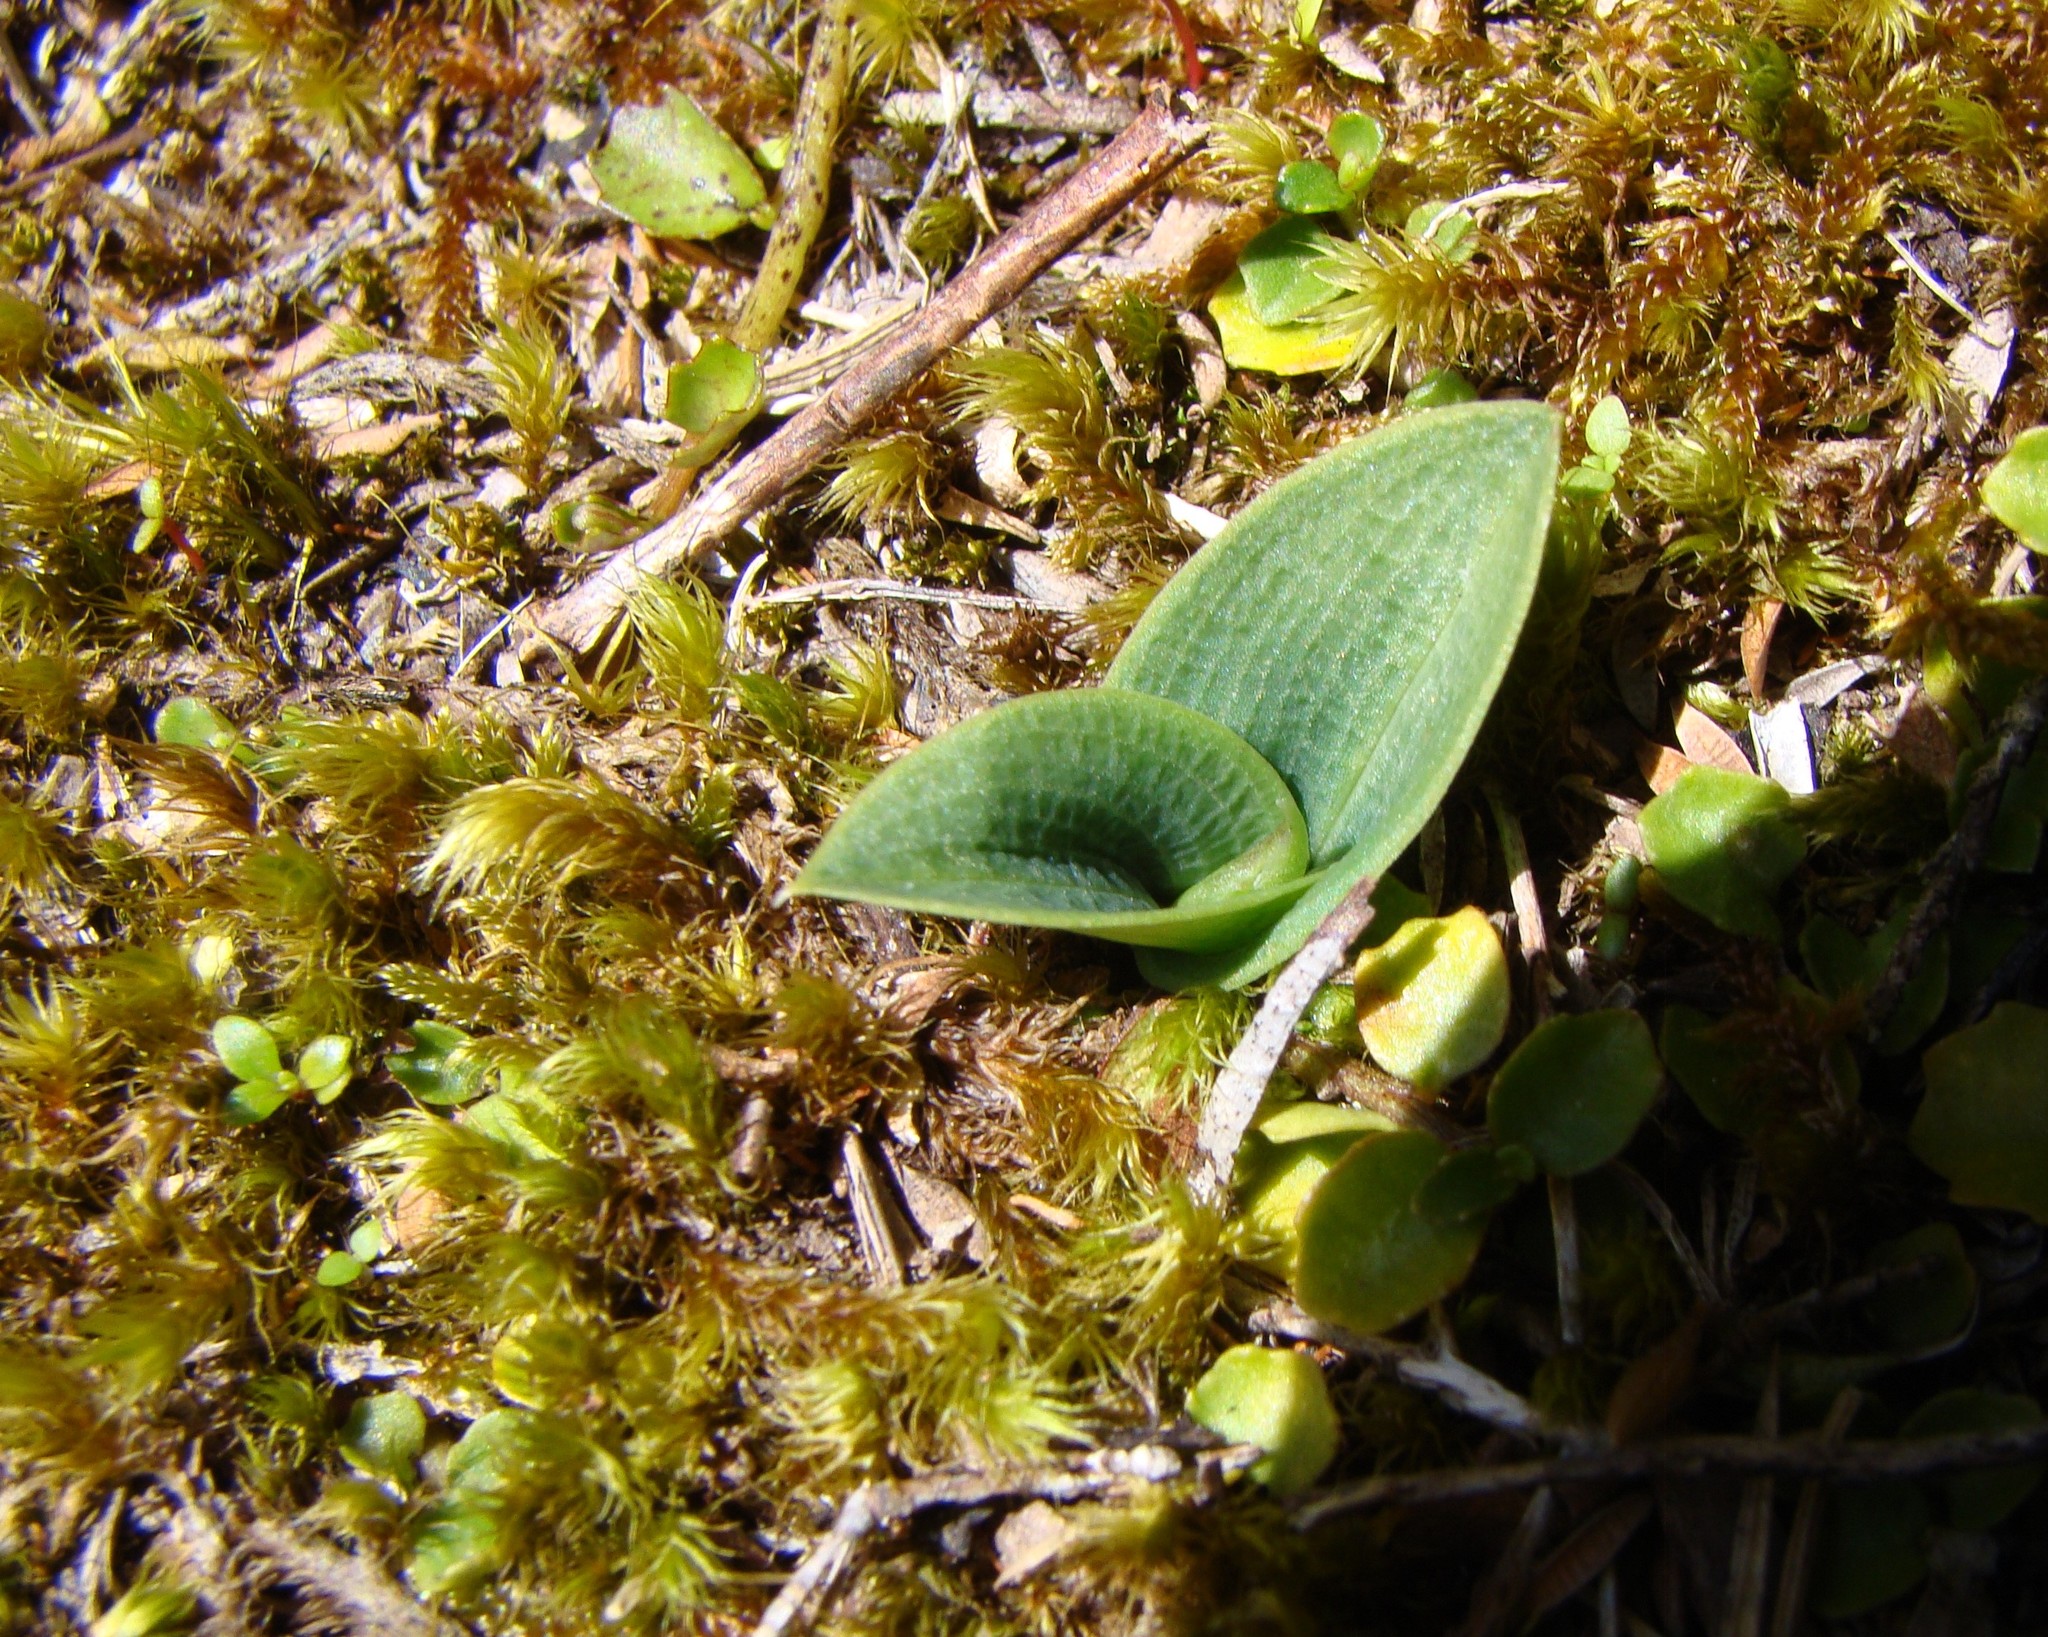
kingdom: Plantae
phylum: Tracheophyta
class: Liliopsida
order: Asparagales
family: Orchidaceae
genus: Chiloglottis
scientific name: Chiloglottis cornuta
